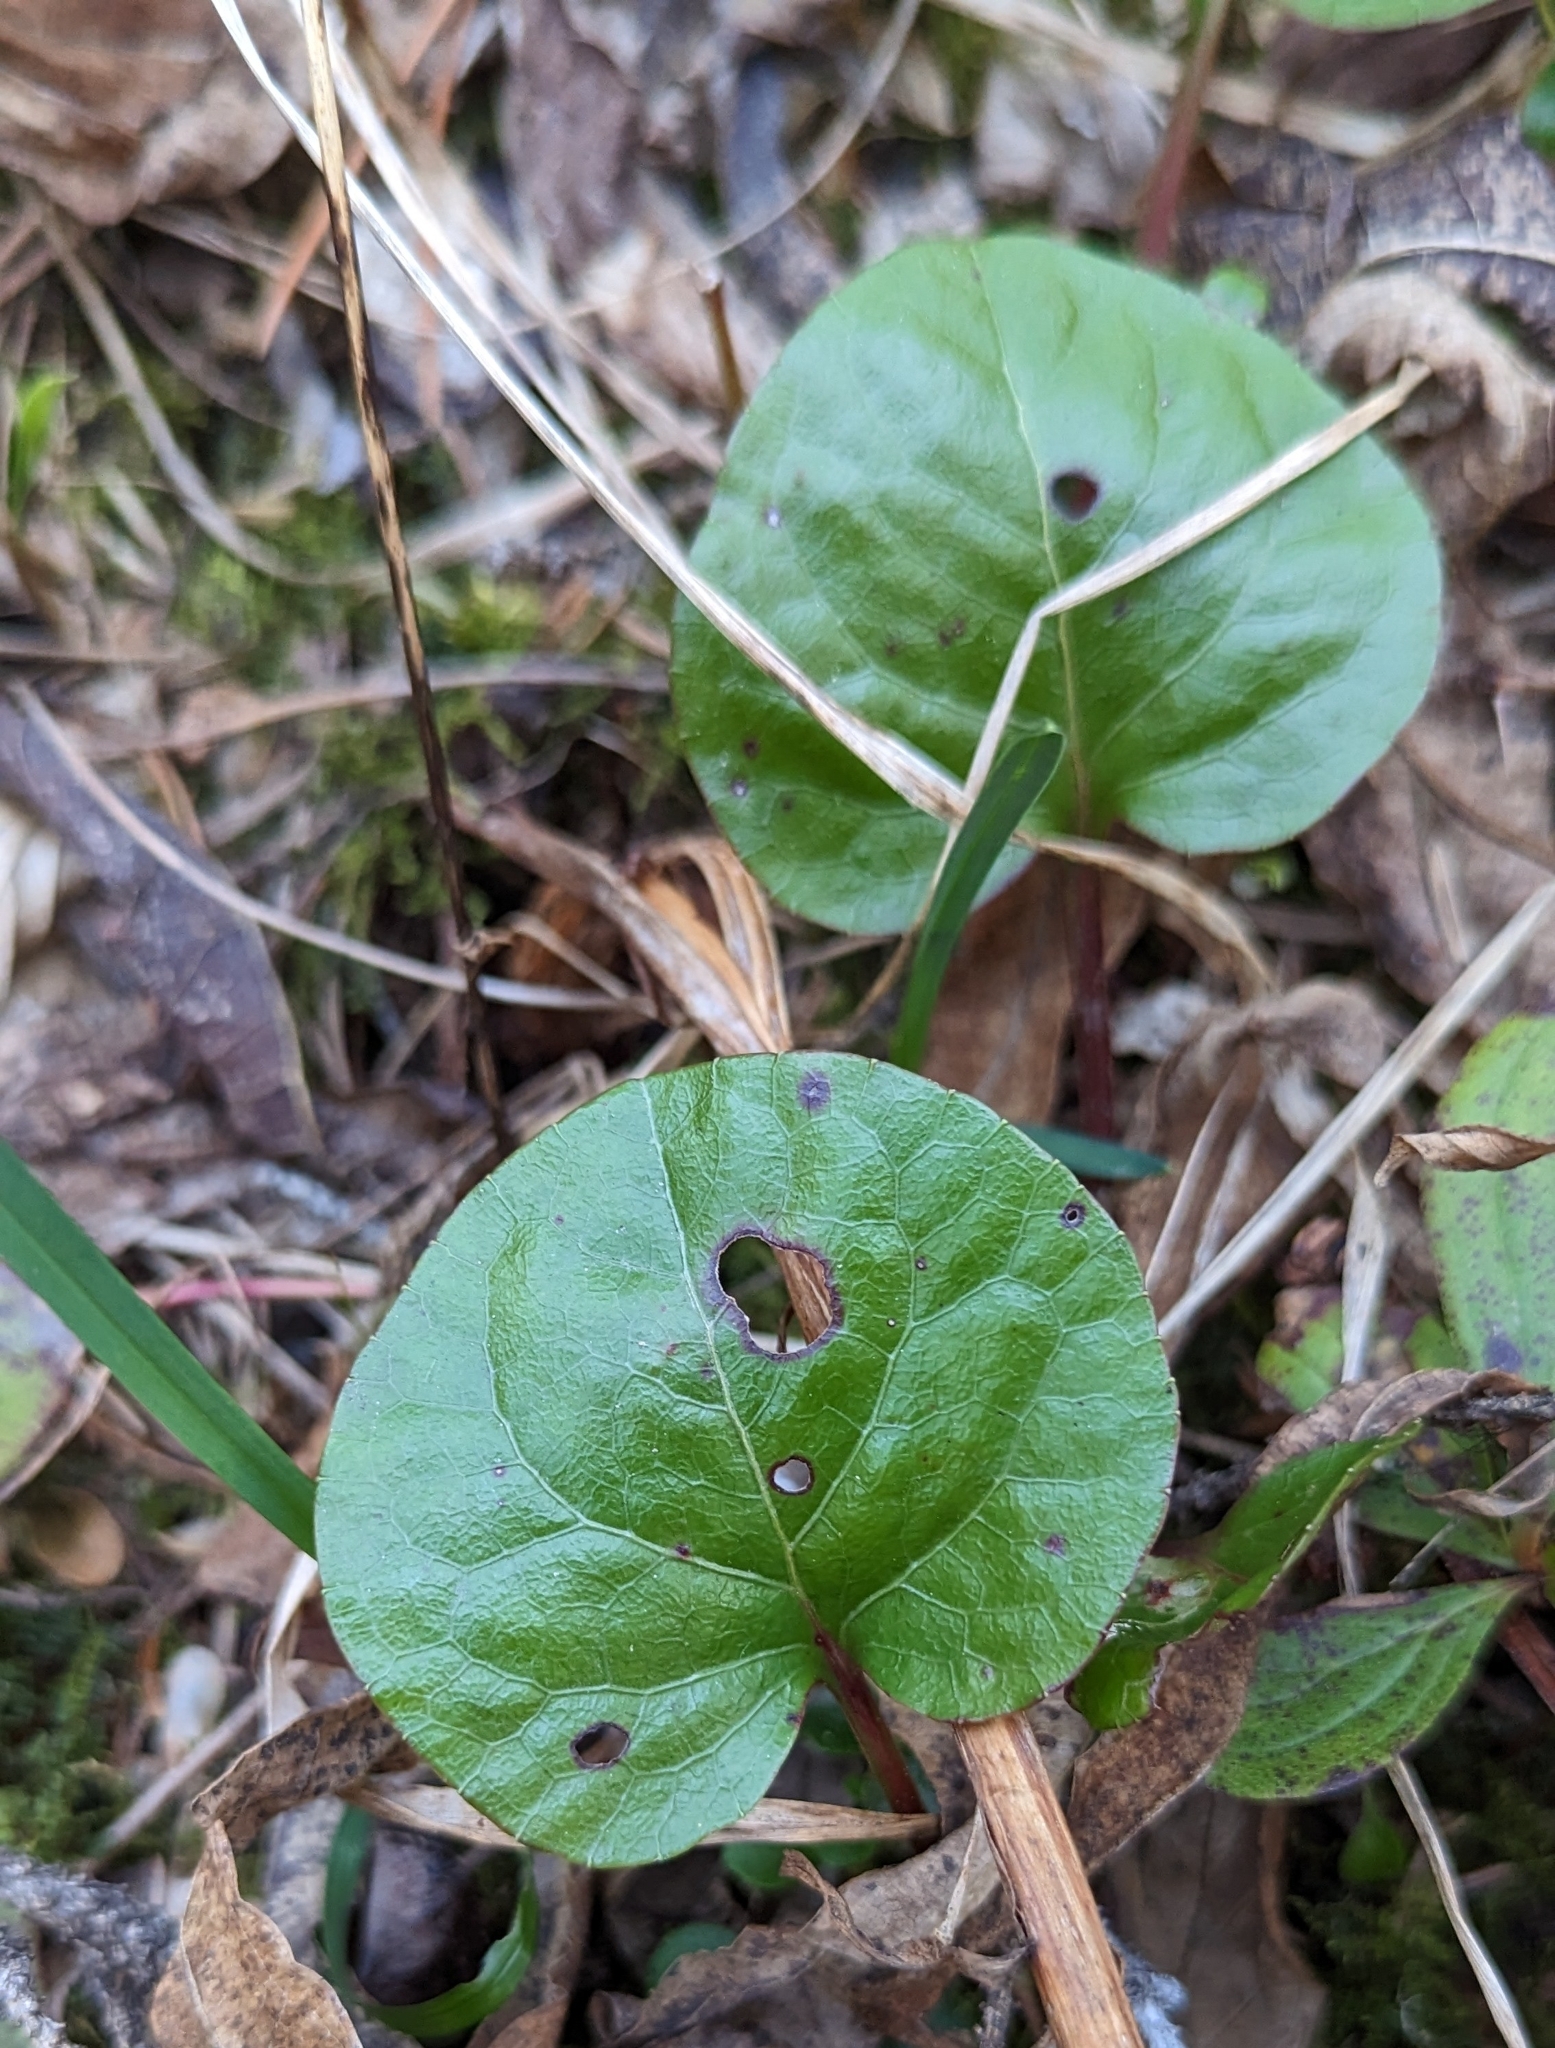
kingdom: Plantae
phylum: Tracheophyta
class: Magnoliopsida
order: Ericales
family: Ericaceae
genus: Pyrola
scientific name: Pyrola asarifolia
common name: Bog wintergreen
